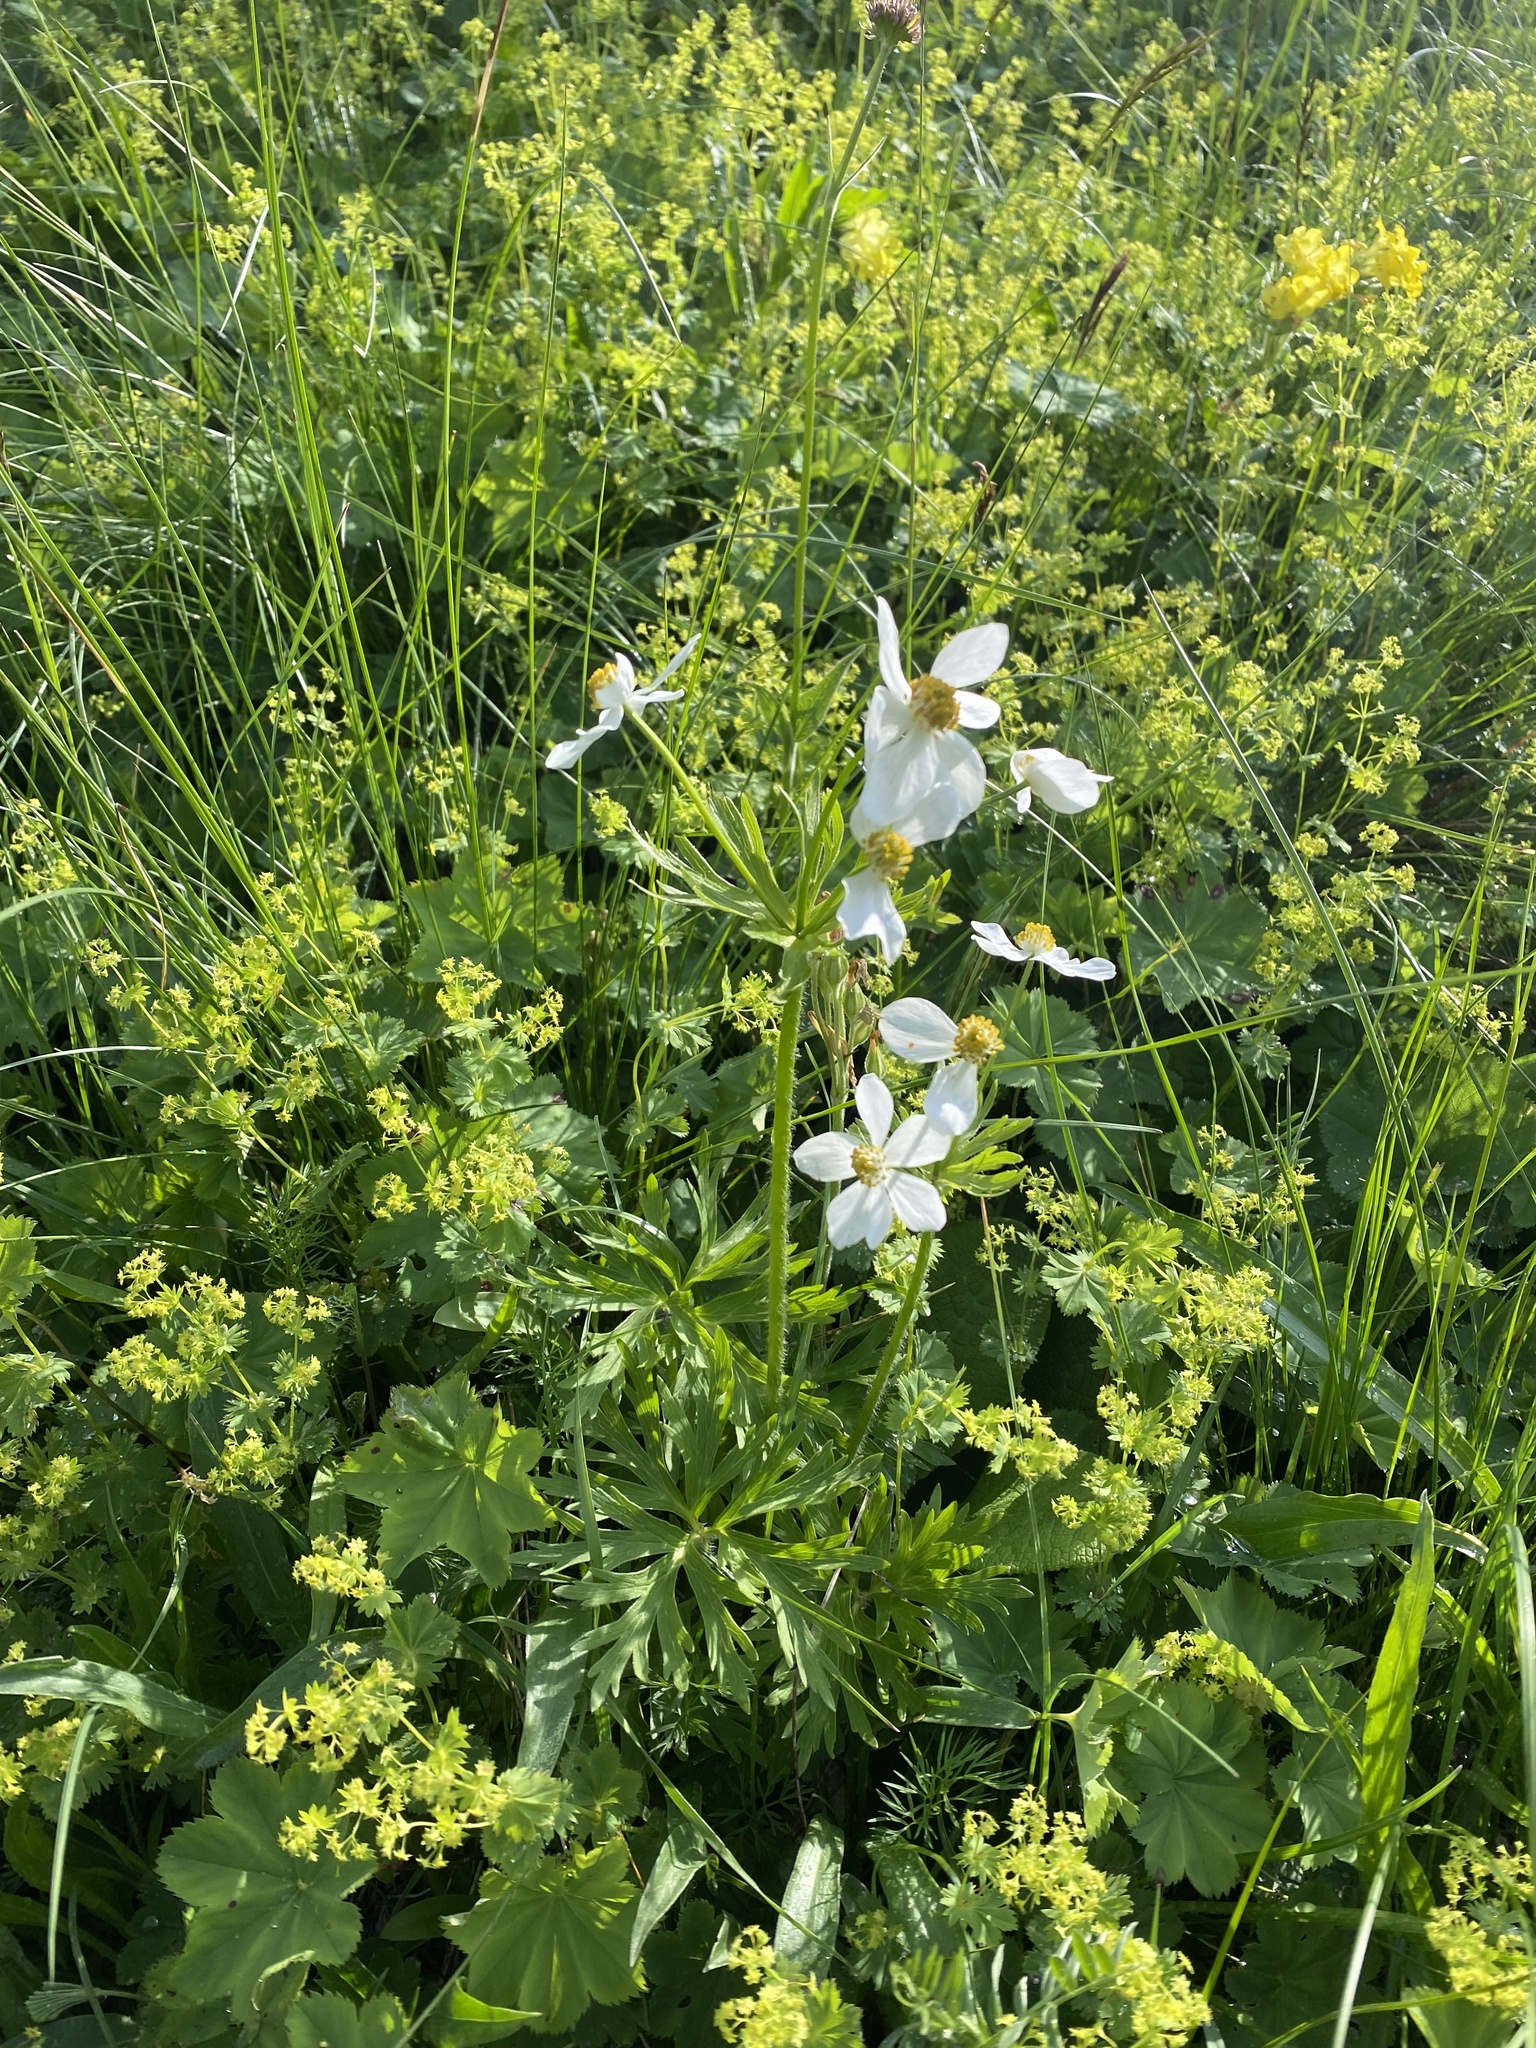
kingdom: Plantae
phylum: Tracheophyta
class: Magnoliopsida
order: Ranunculales
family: Ranunculaceae
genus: Anemonastrum
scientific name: Anemonastrum narcissiflorum
